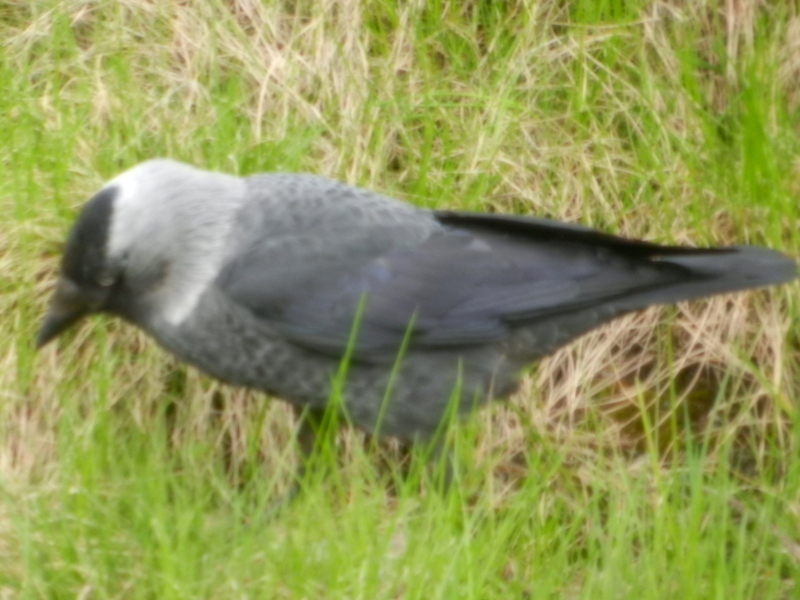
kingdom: Animalia
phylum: Chordata
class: Aves
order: Passeriformes
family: Corvidae
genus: Coloeus
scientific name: Coloeus monedula
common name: Western jackdaw
